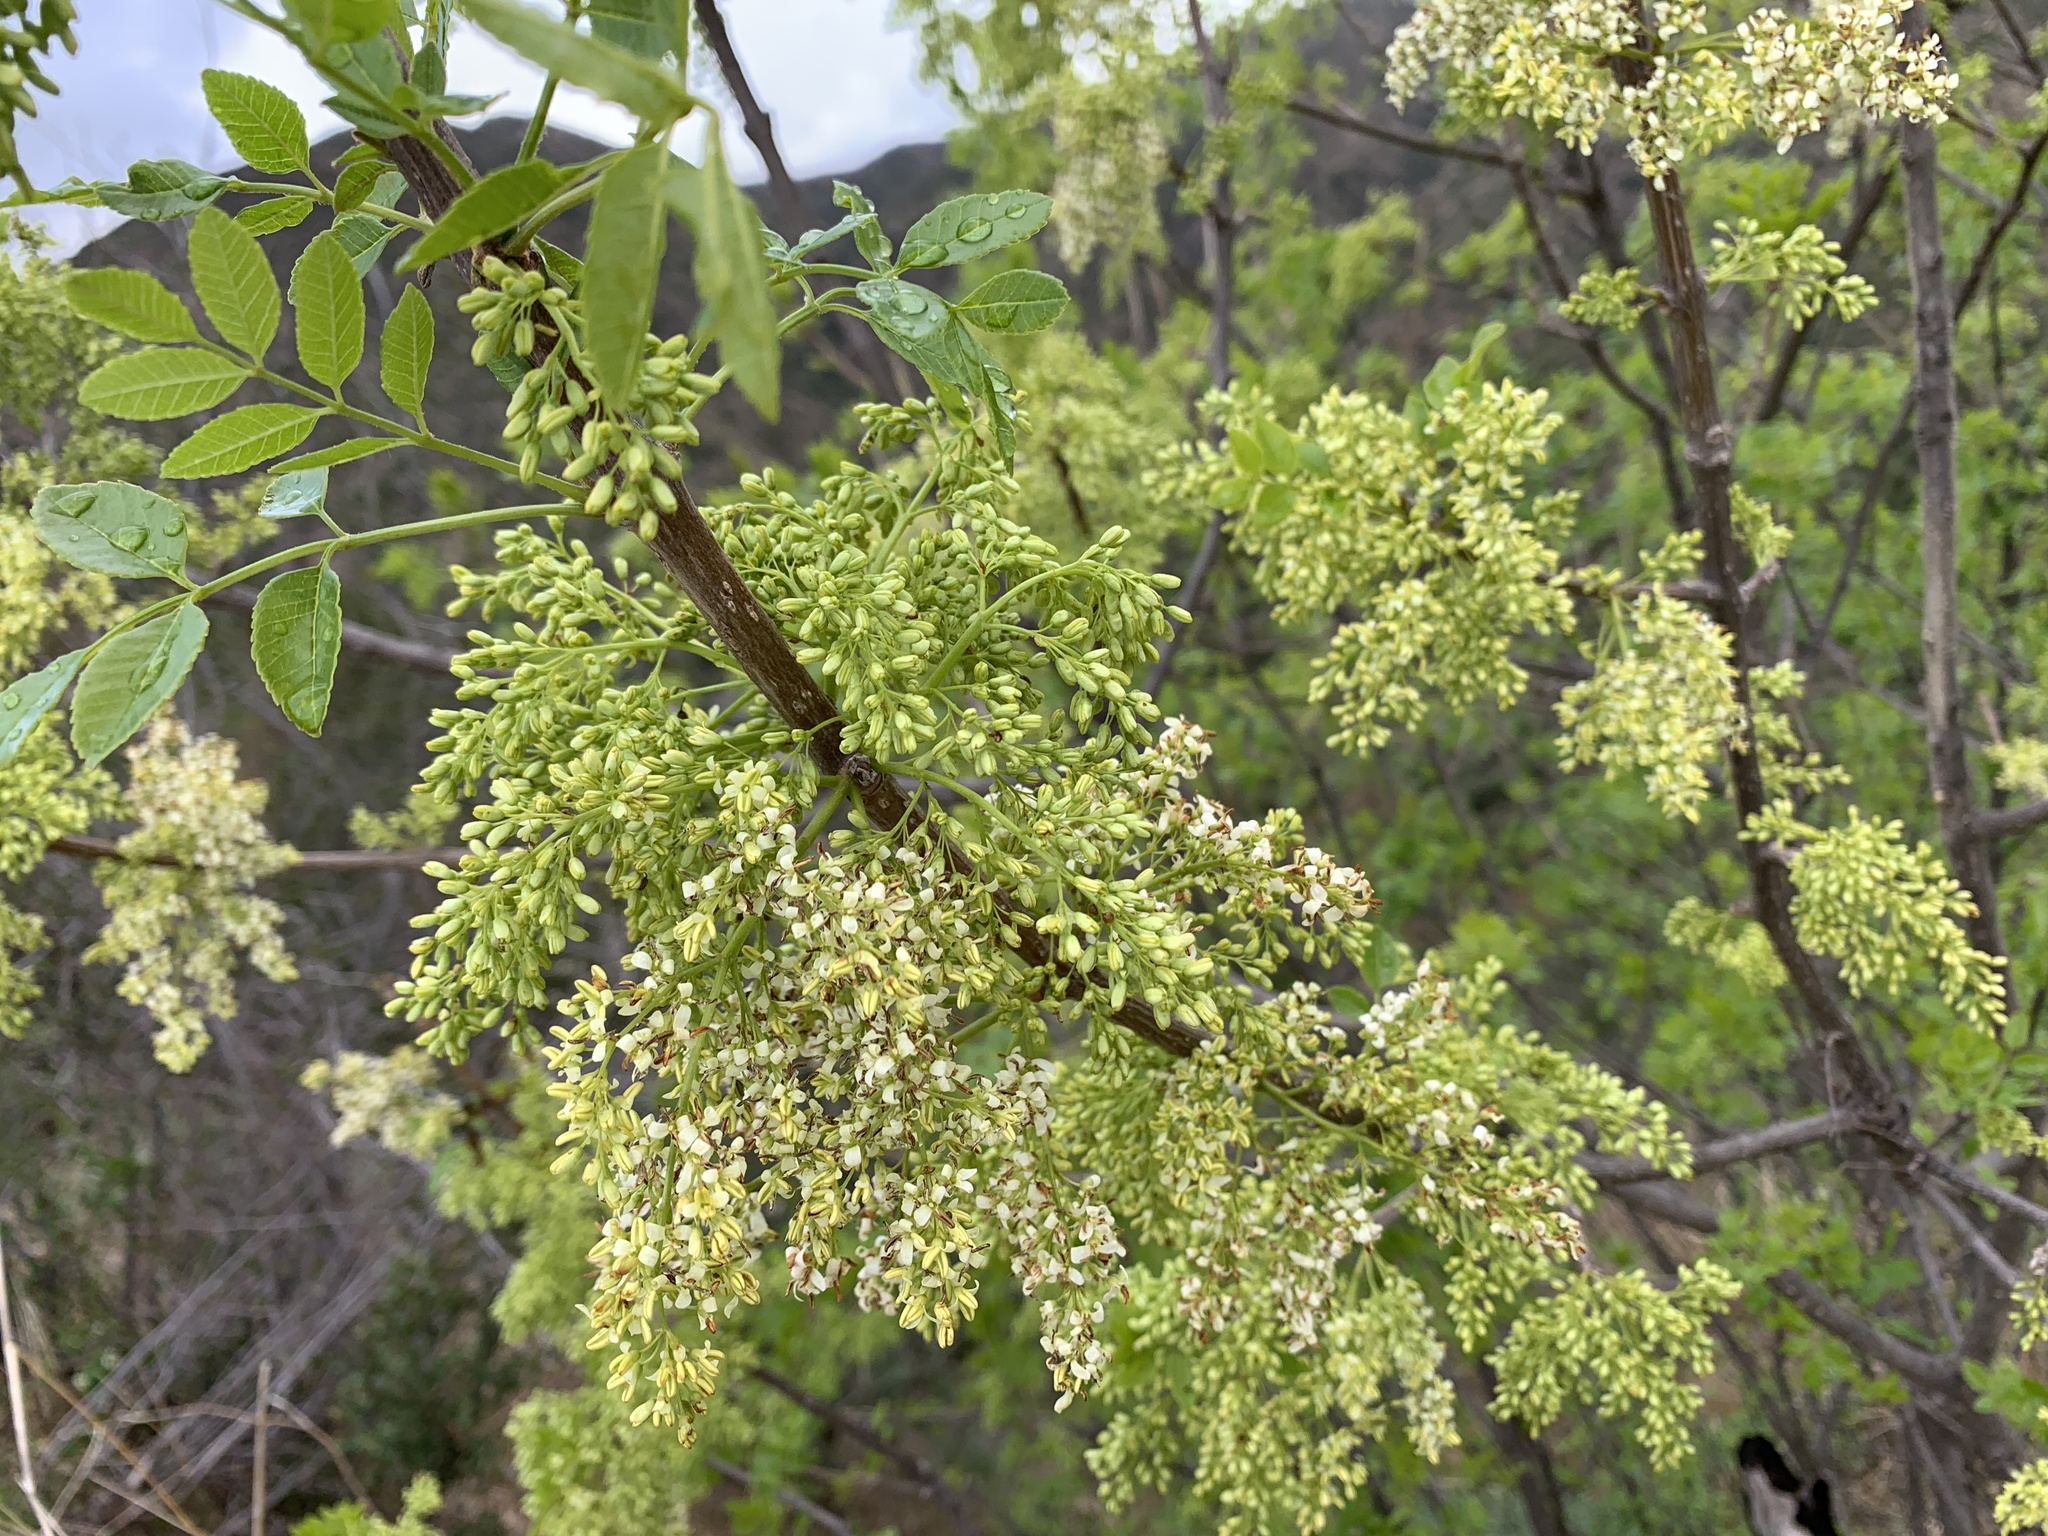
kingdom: Plantae
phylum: Tracheophyta
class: Magnoliopsida
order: Lamiales
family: Oleaceae
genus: Fraxinus
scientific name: Fraxinus dipetala
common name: California ash
